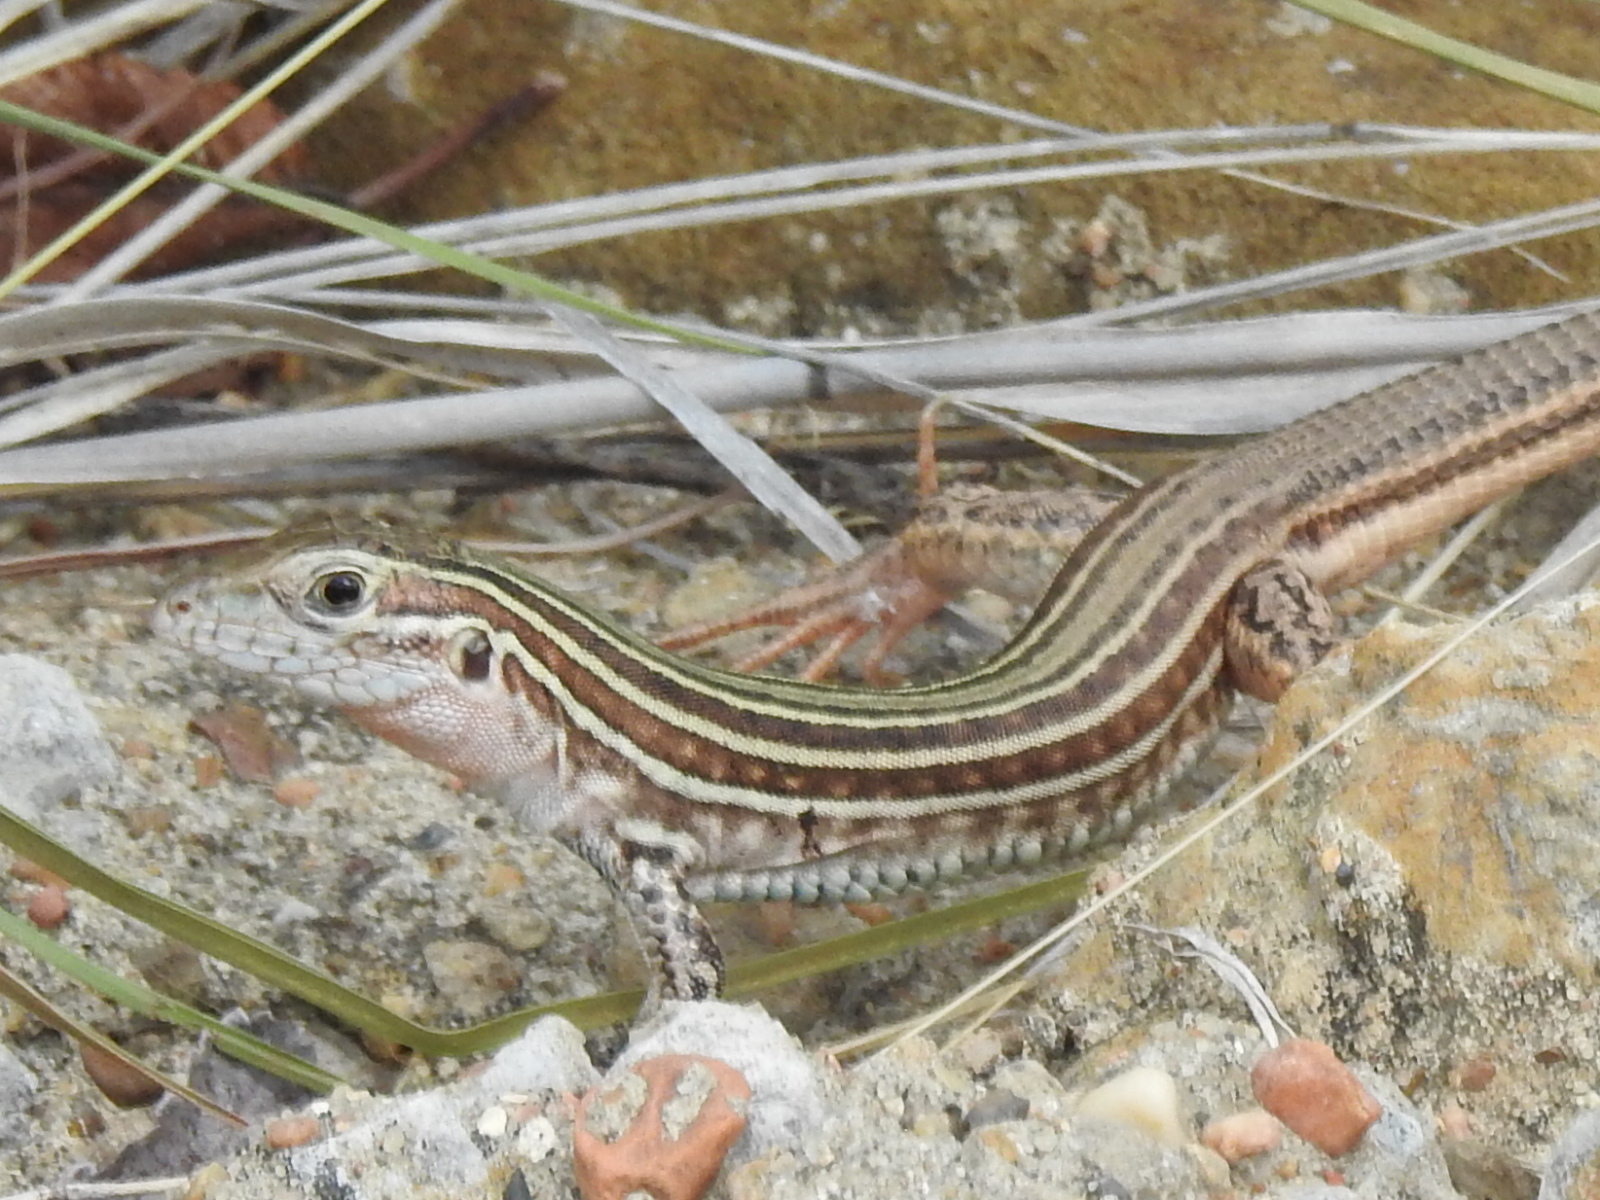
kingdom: Animalia
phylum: Chordata
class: Squamata
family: Teiidae
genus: Aspidoscelis
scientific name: Aspidoscelis gularis
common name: Eastern spotted whiptail
